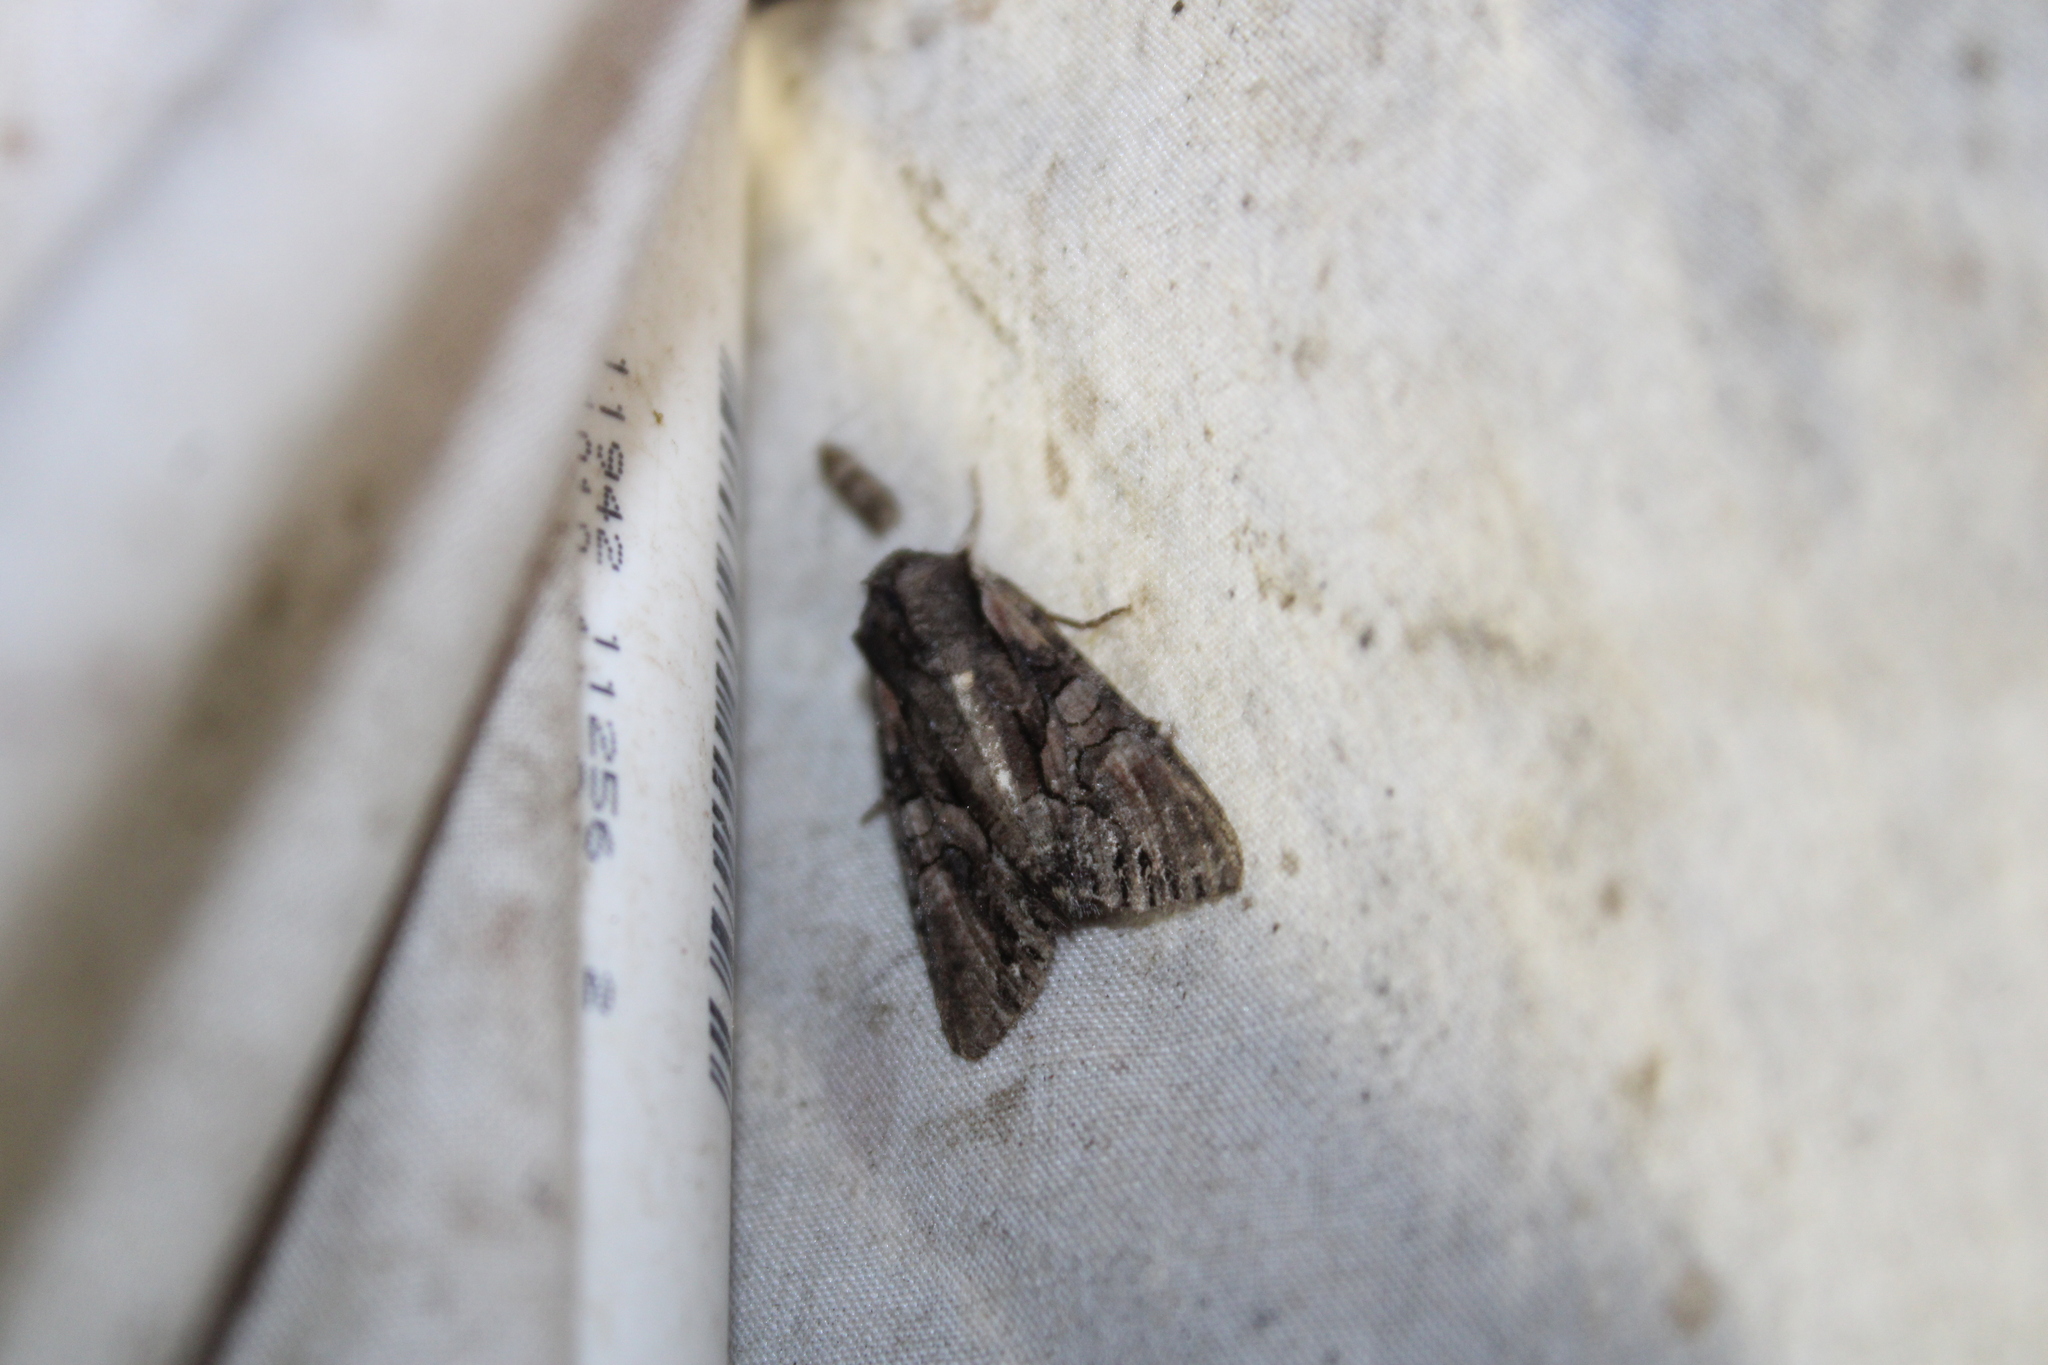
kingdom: Animalia
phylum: Arthropoda
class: Insecta
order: Lepidoptera
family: Noctuidae
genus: Lacanobia
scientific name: Lacanobia subjuncta
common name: Speckled cutworm moth
